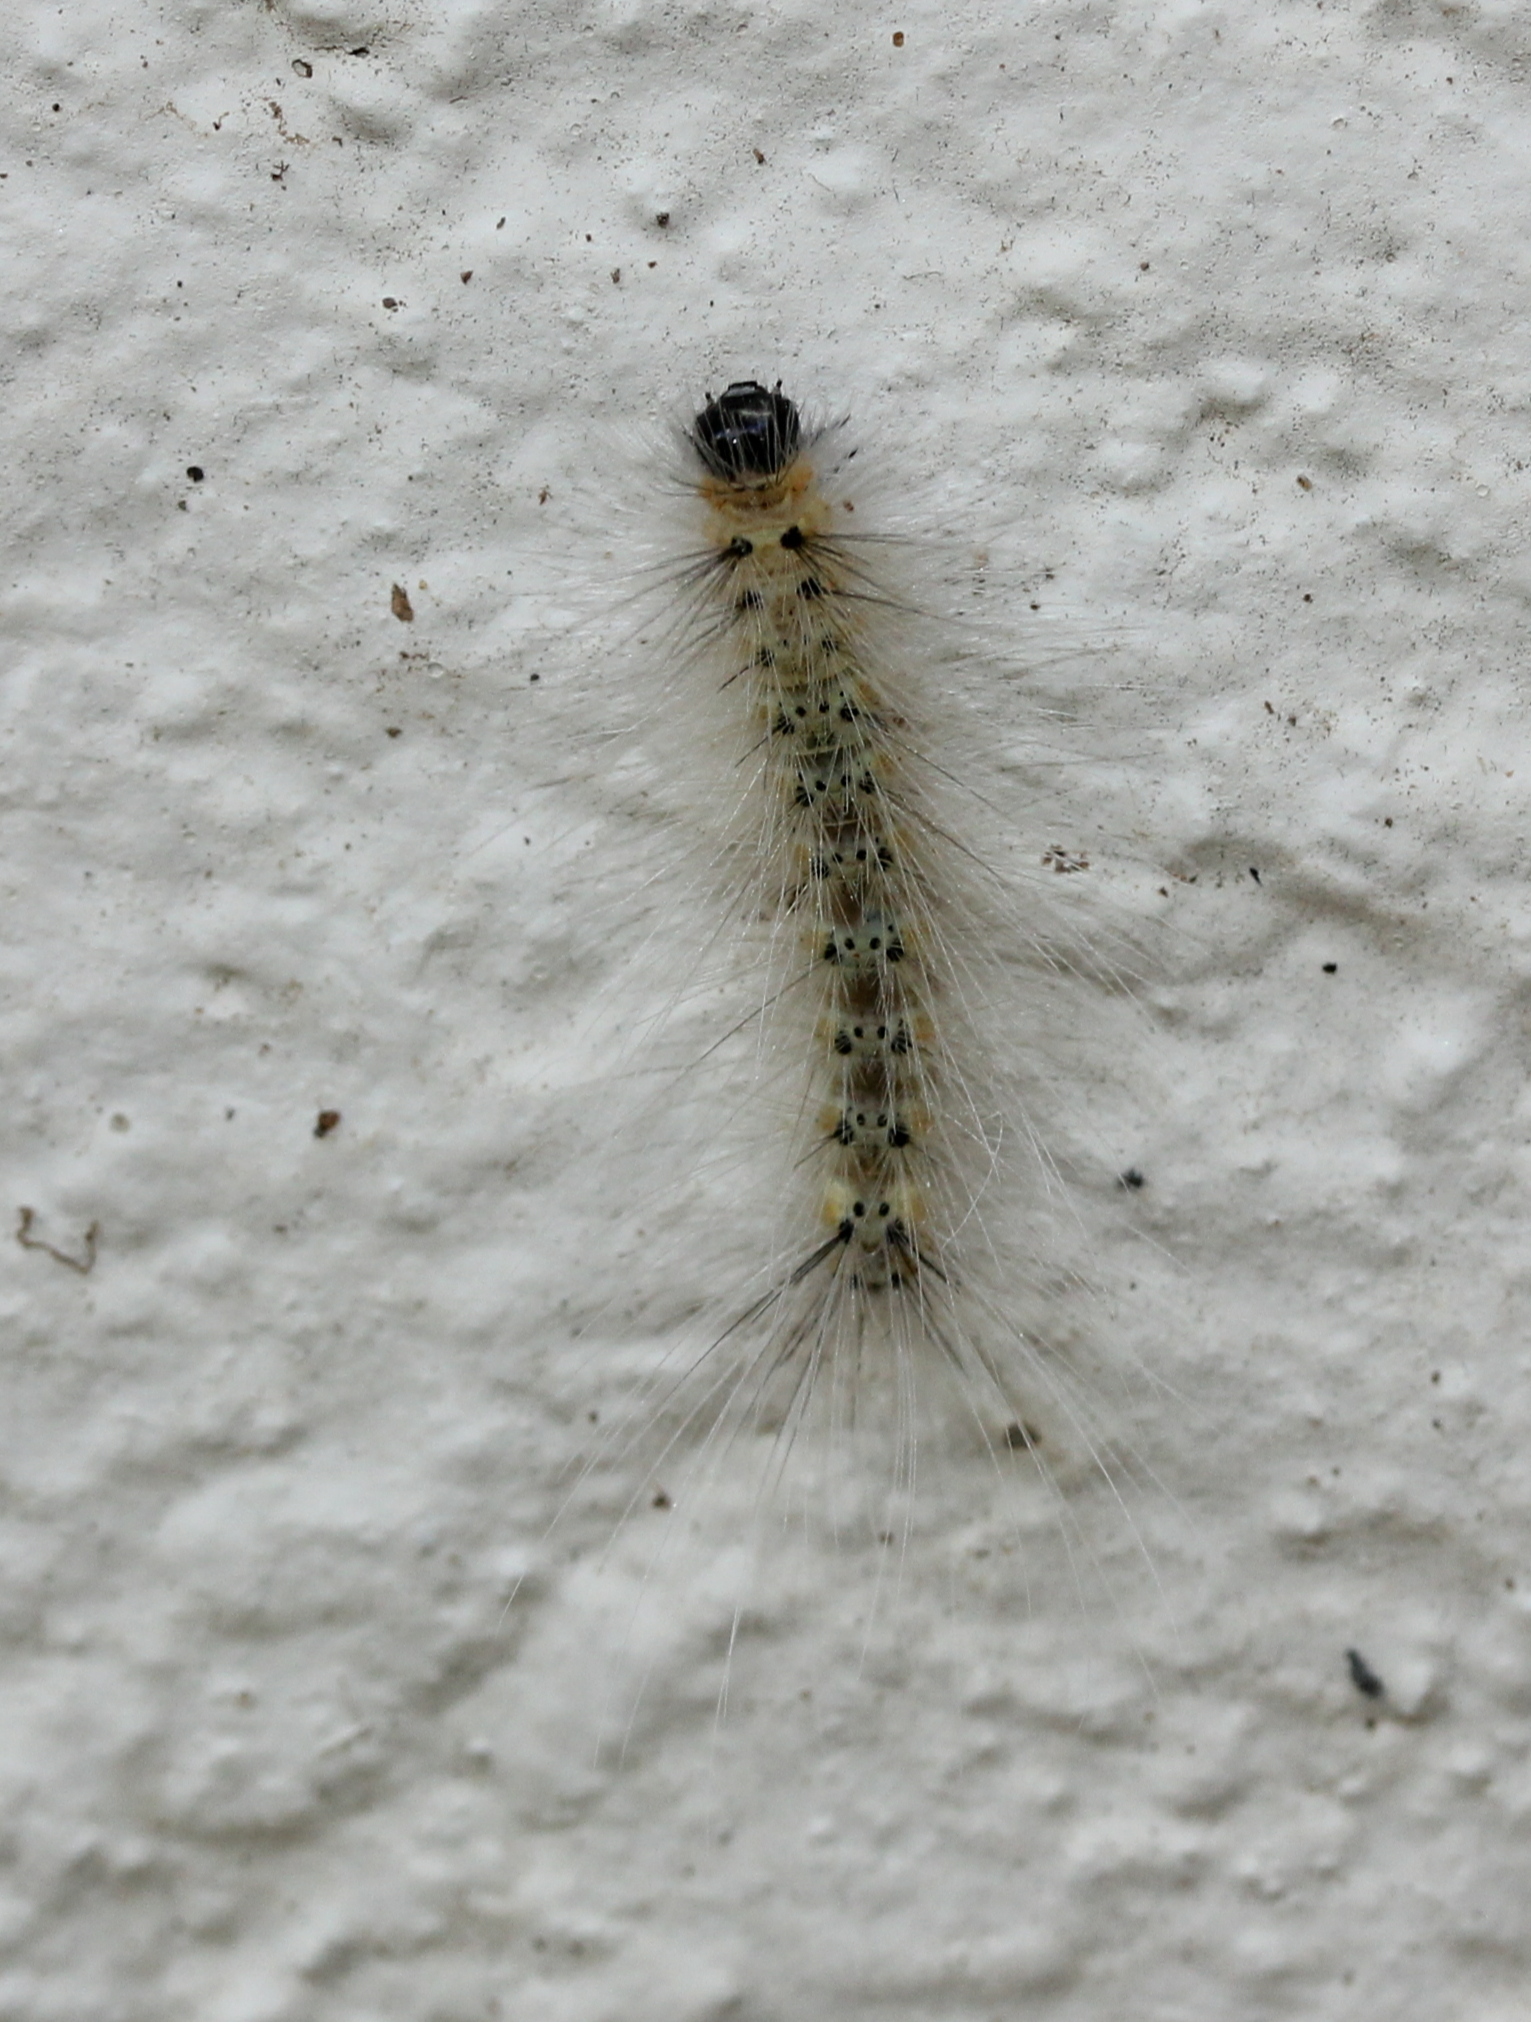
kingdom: Animalia
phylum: Arthropoda
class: Insecta
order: Lepidoptera
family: Erebidae
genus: Hyphantria
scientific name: Hyphantria cunea
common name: American white moth
